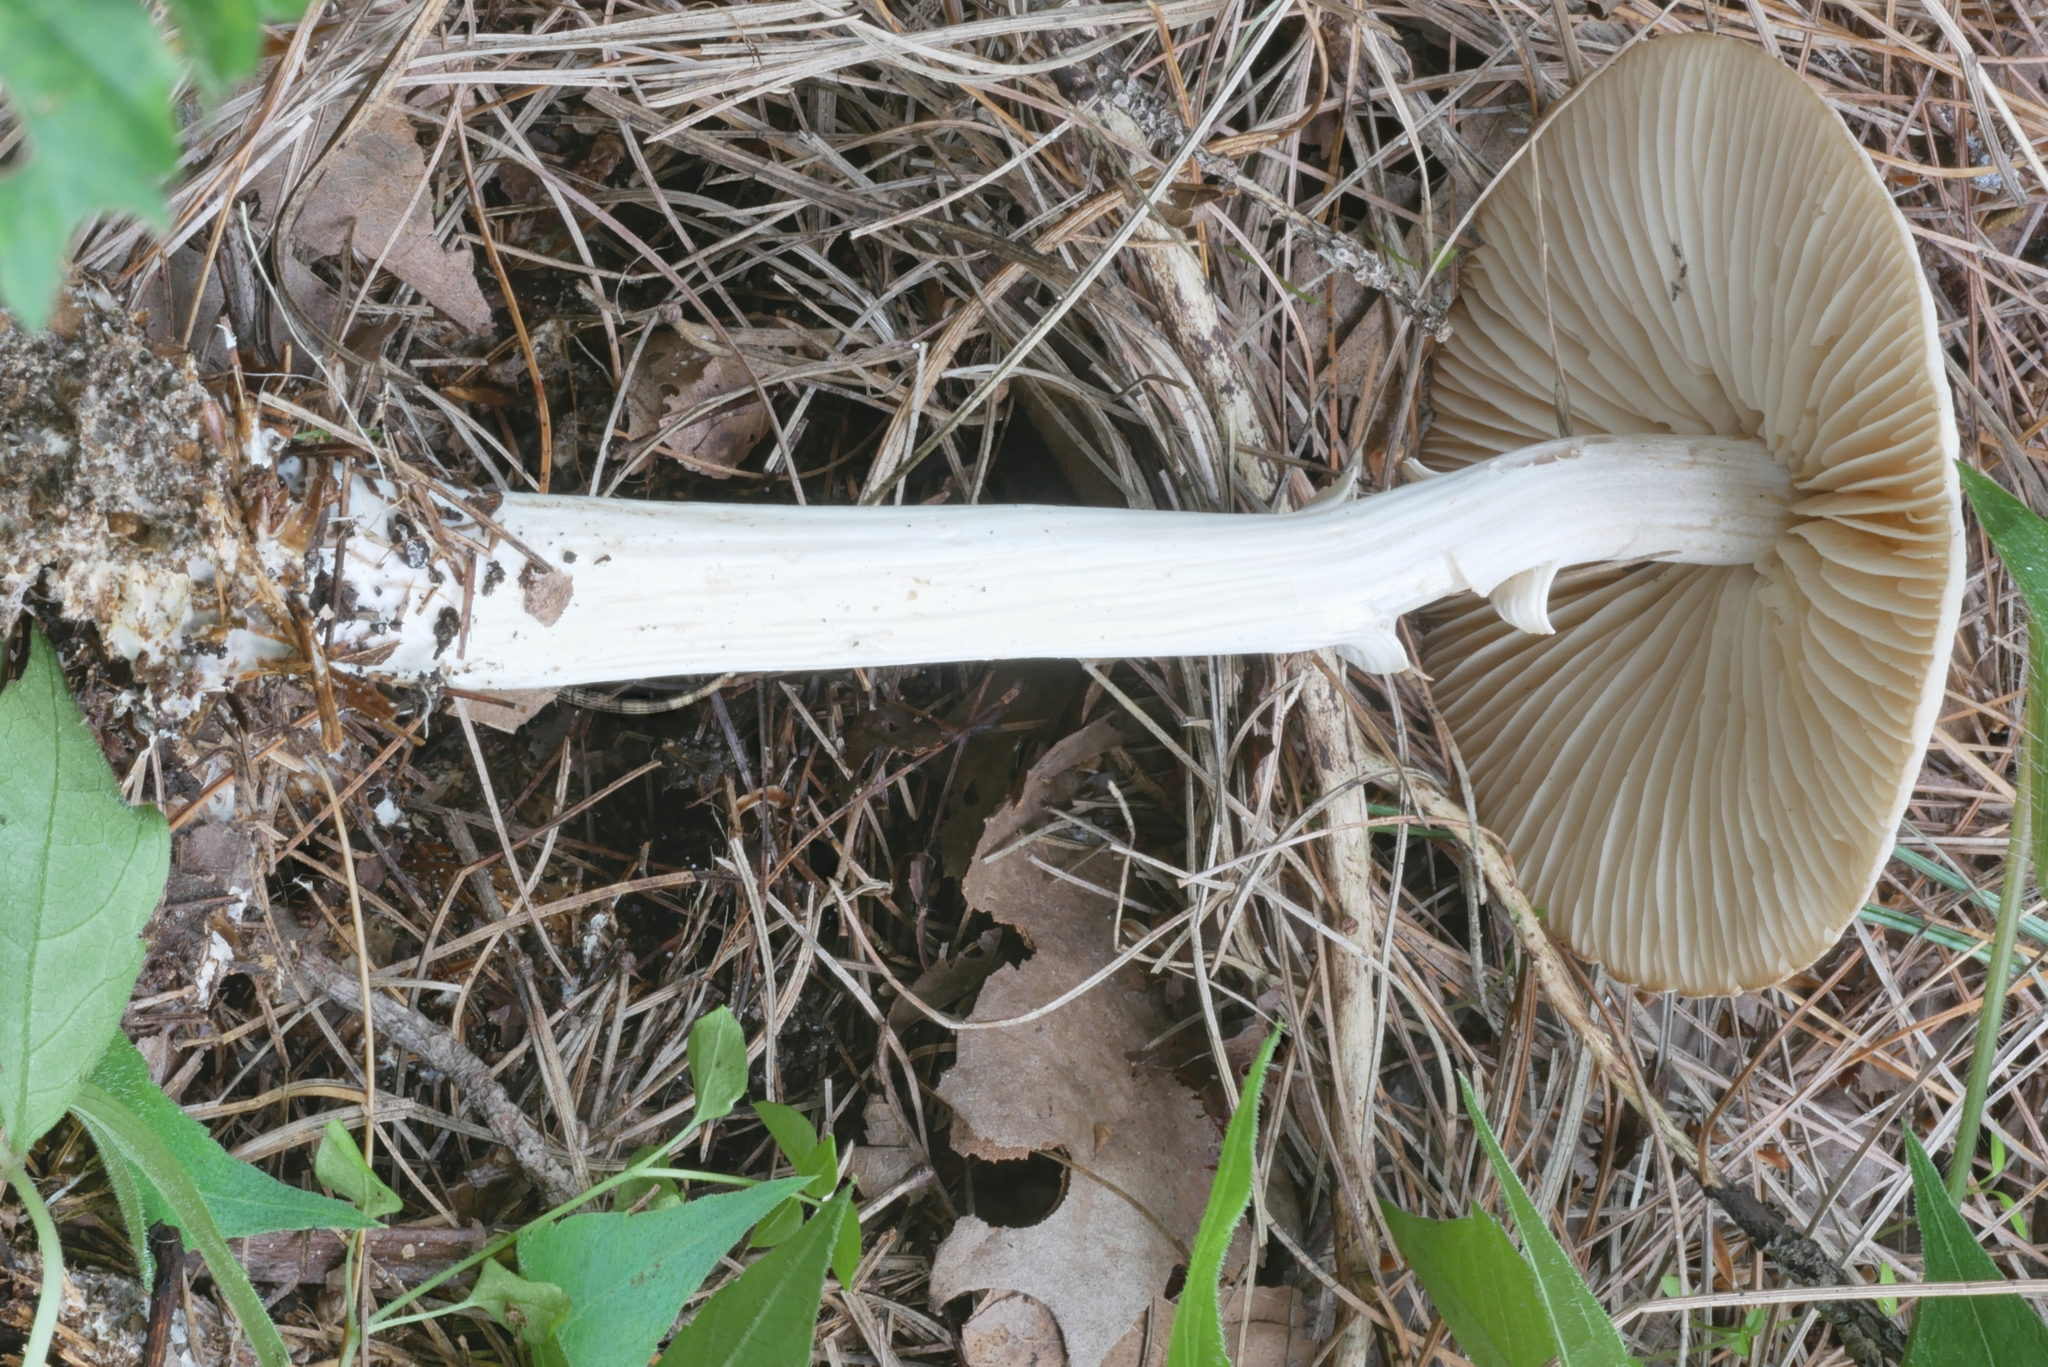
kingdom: Fungi
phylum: Basidiomycota
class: Agaricomycetes
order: Agaricales
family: Marasmiaceae
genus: Marasmius
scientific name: Marasmius nigrodiscus
